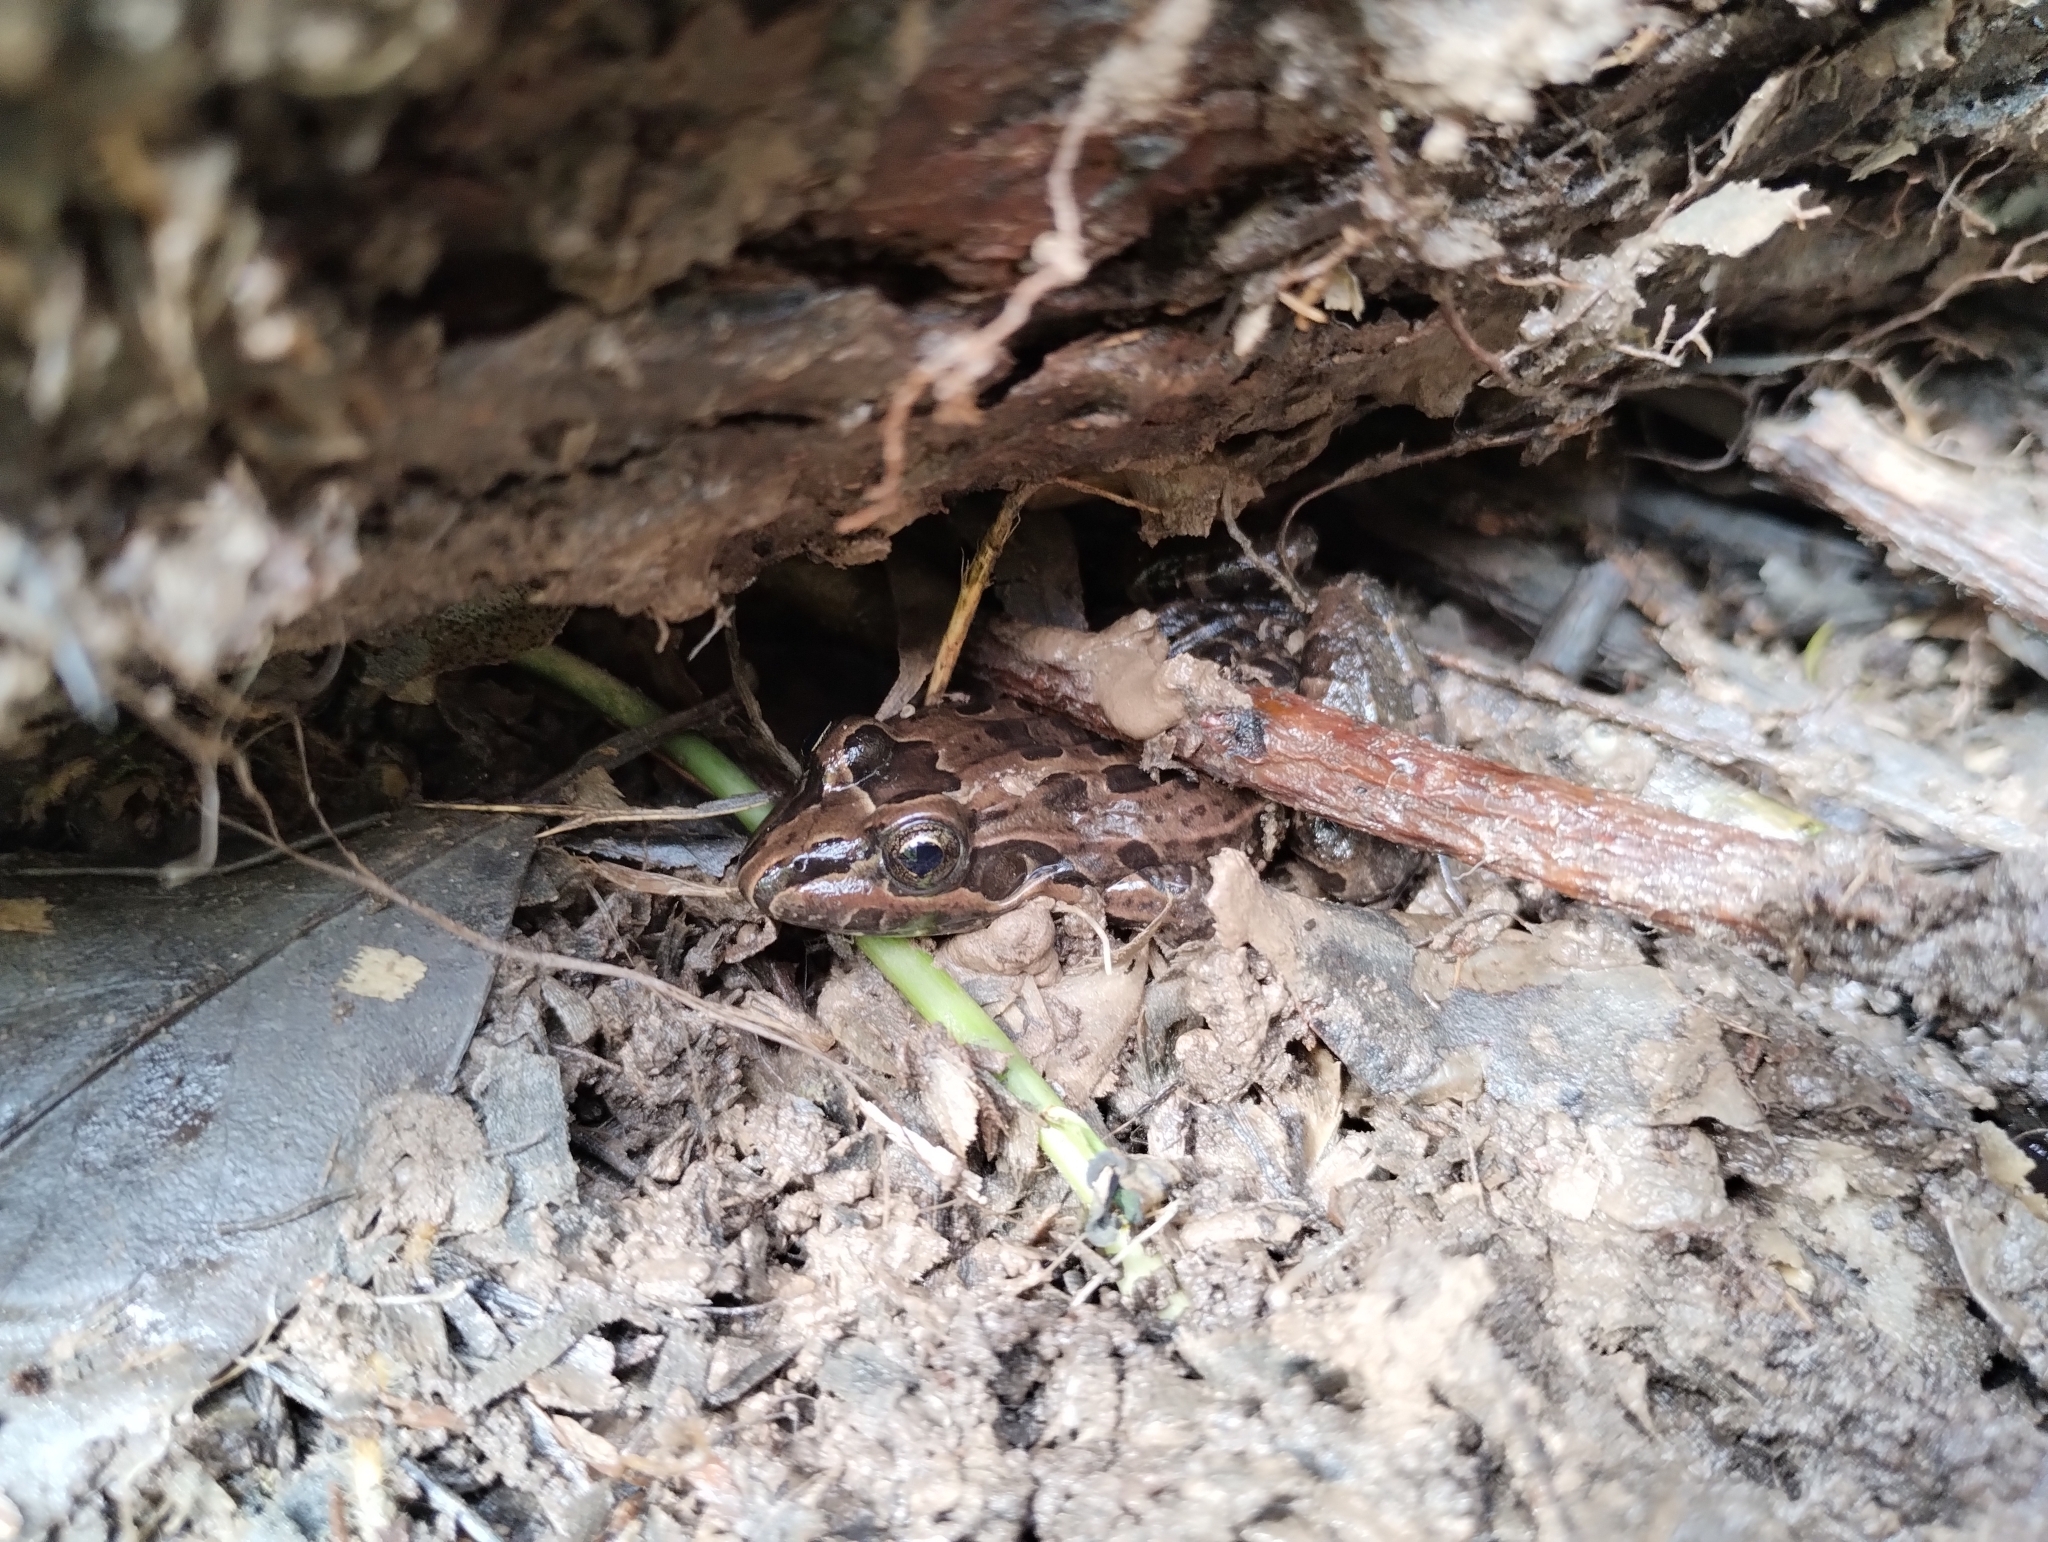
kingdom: Animalia
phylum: Chordata
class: Amphibia
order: Anura
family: Leptodactylidae
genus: Leptodactylus
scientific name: Leptodactylus luctator
